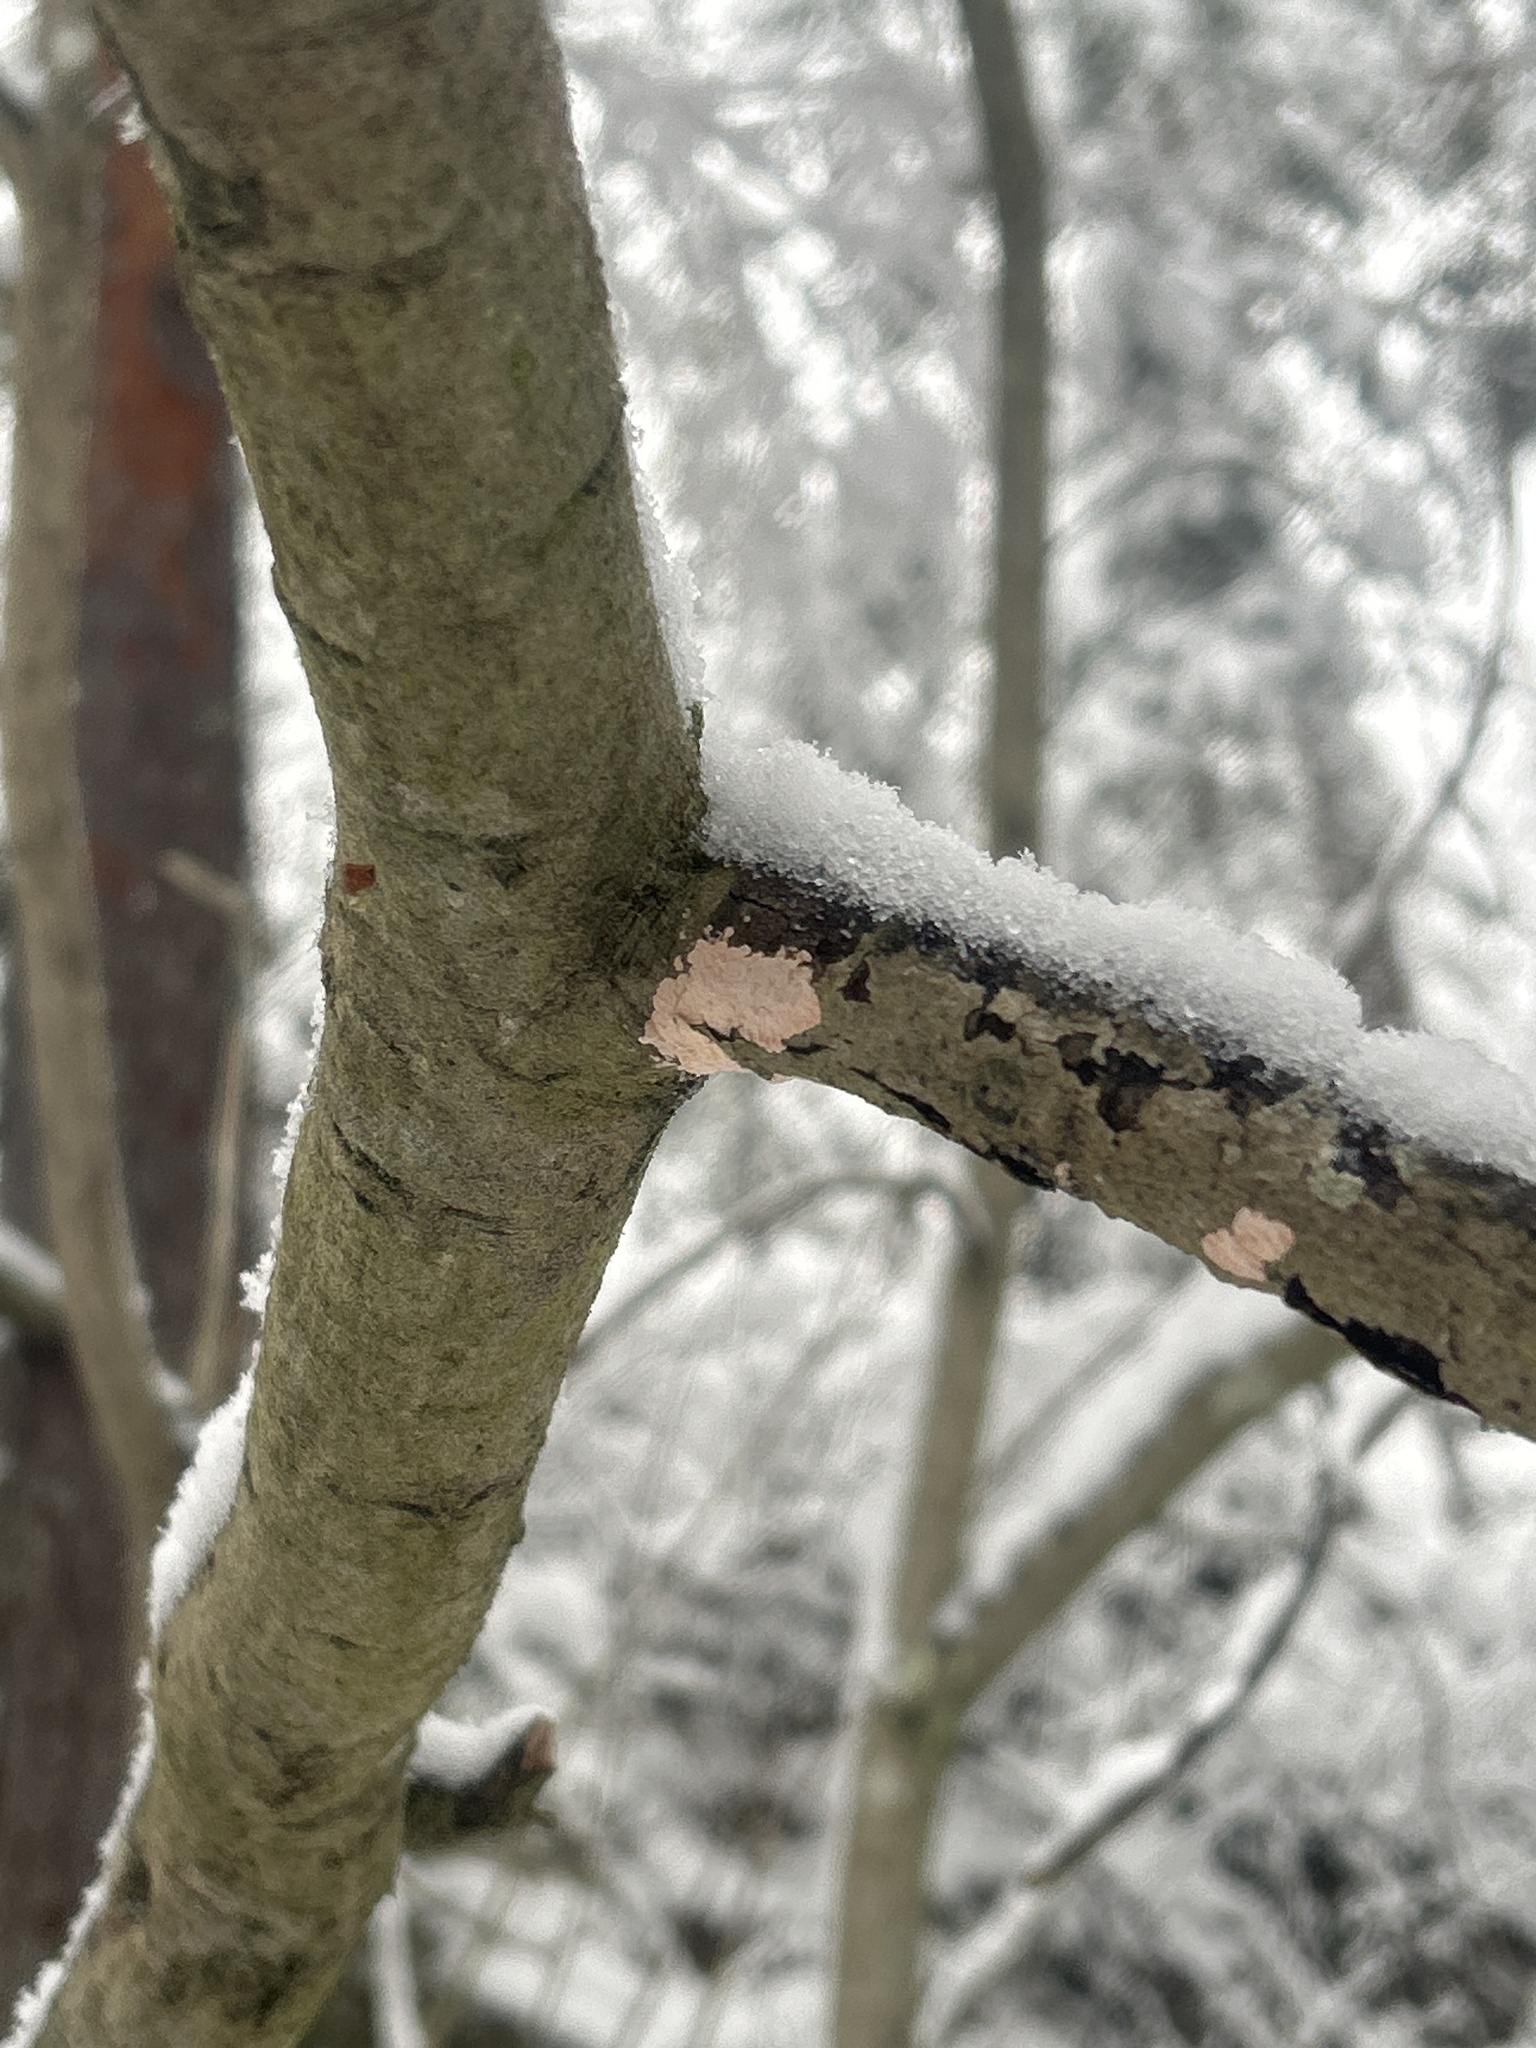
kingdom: Fungi
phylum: Basidiomycota
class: Agaricomycetes
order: Corticiales
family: Corticiaceae
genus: Corticium
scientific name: Corticium roseum
